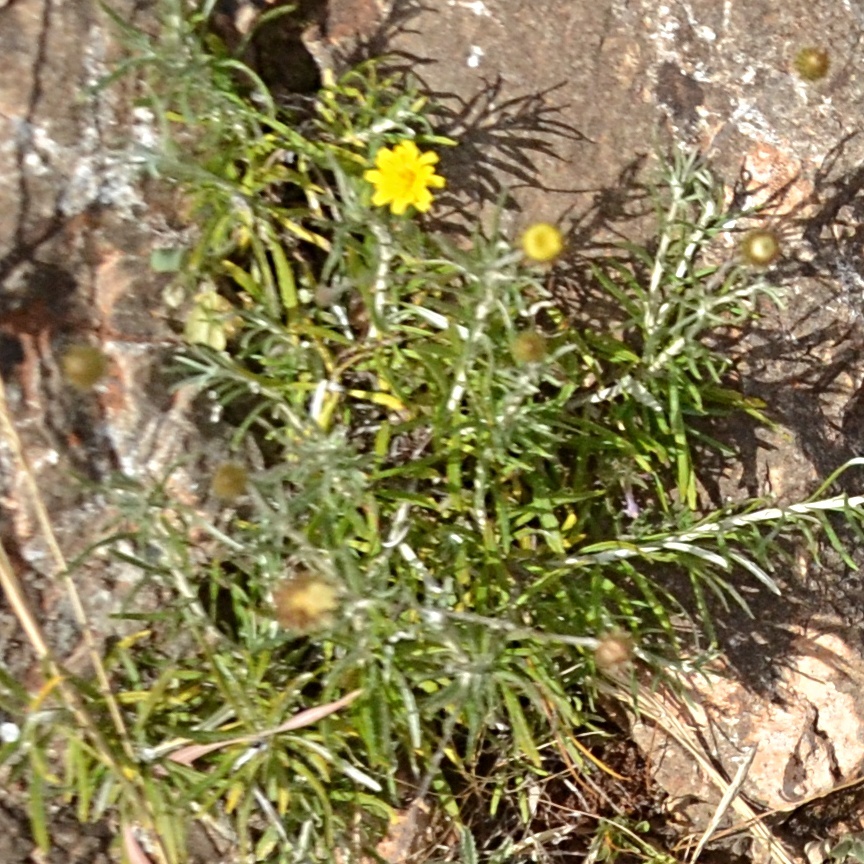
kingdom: Plantae
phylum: Tracheophyta
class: Magnoliopsida
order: Asterales
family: Asteraceae
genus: Phagnalon
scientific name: Phagnalon saxatile
